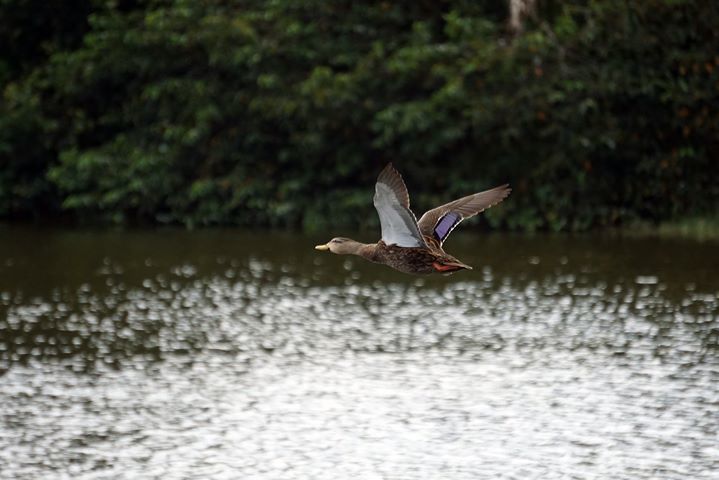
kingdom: Animalia
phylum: Chordata
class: Aves
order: Anseriformes
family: Anatidae
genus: Anas
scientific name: Anas
